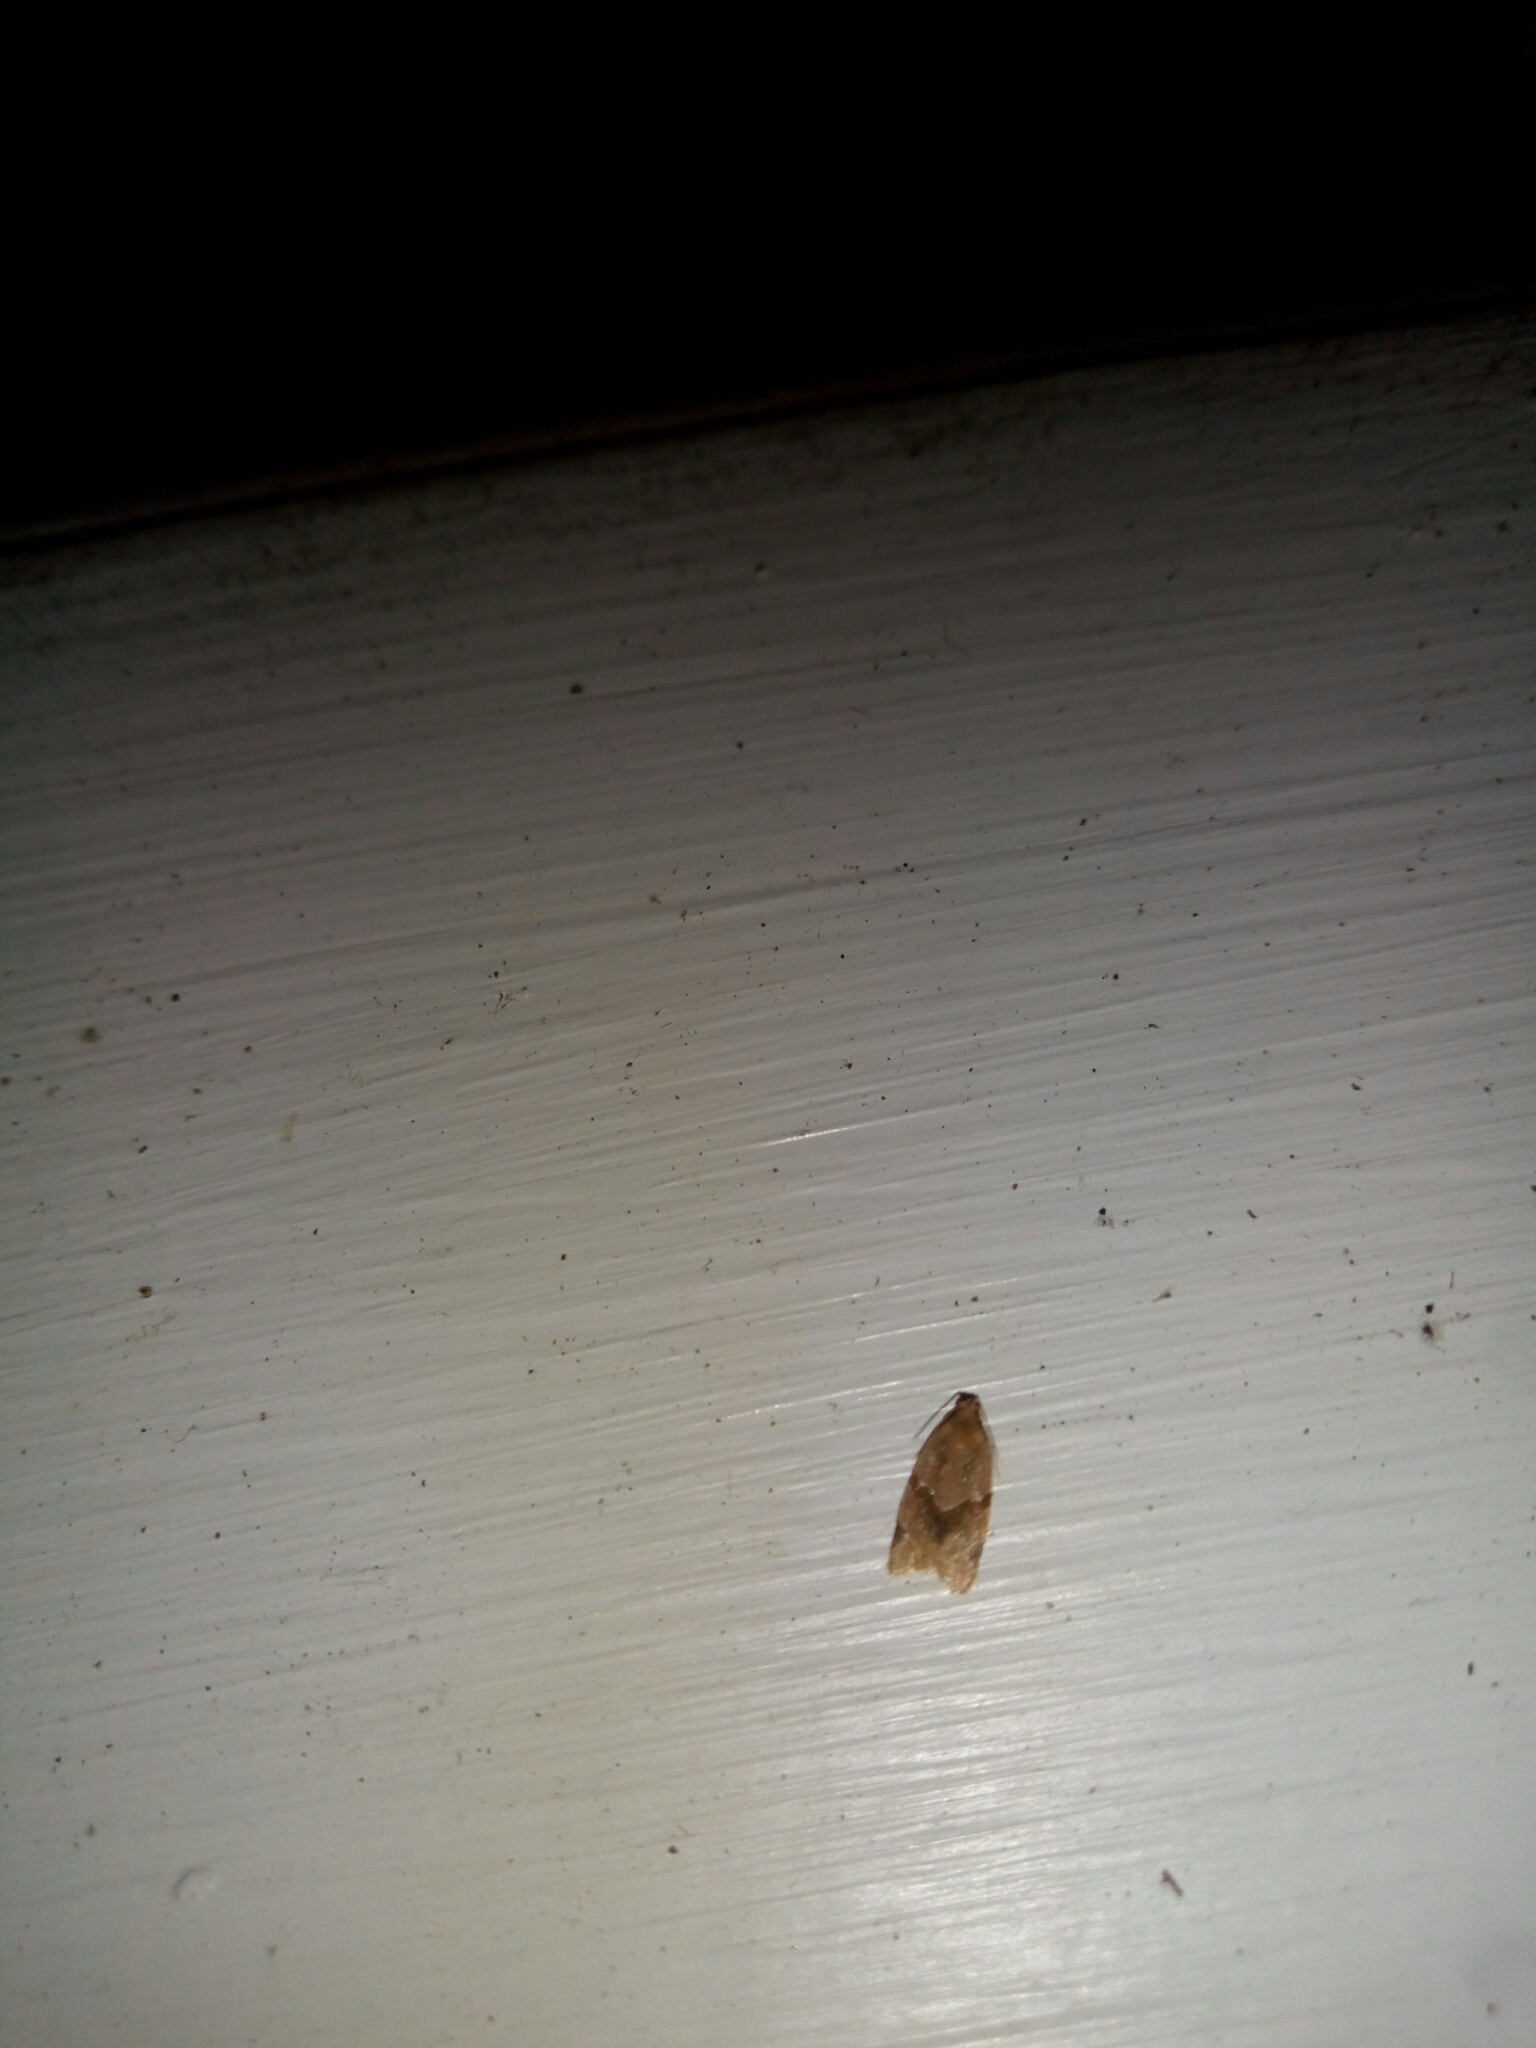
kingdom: Animalia
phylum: Arthropoda
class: Insecta
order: Lepidoptera
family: Tortricidae
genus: Clepsis
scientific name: Clepsis peritana
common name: Garden tortrix
